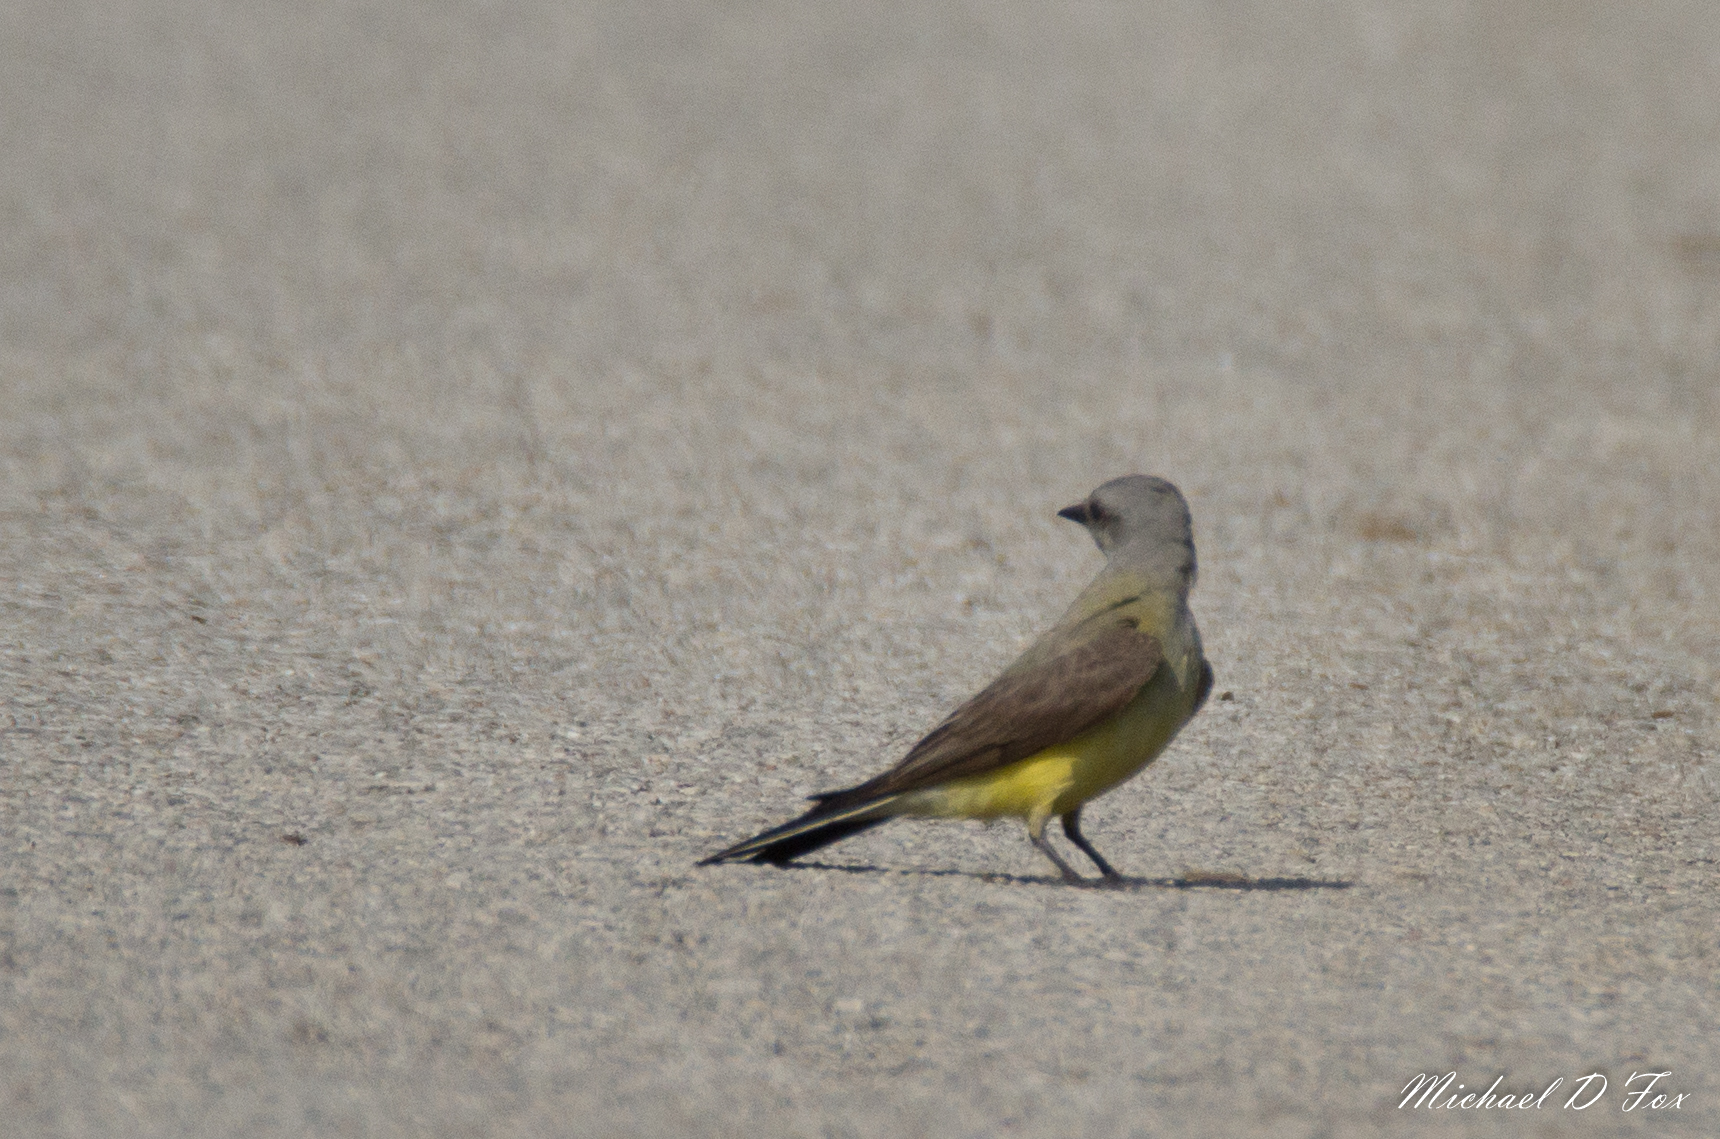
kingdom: Animalia
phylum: Chordata
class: Aves
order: Passeriformes
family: Tyrannidae
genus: Tyrannus
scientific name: Tyrannus verticalis
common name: Western kingbird
